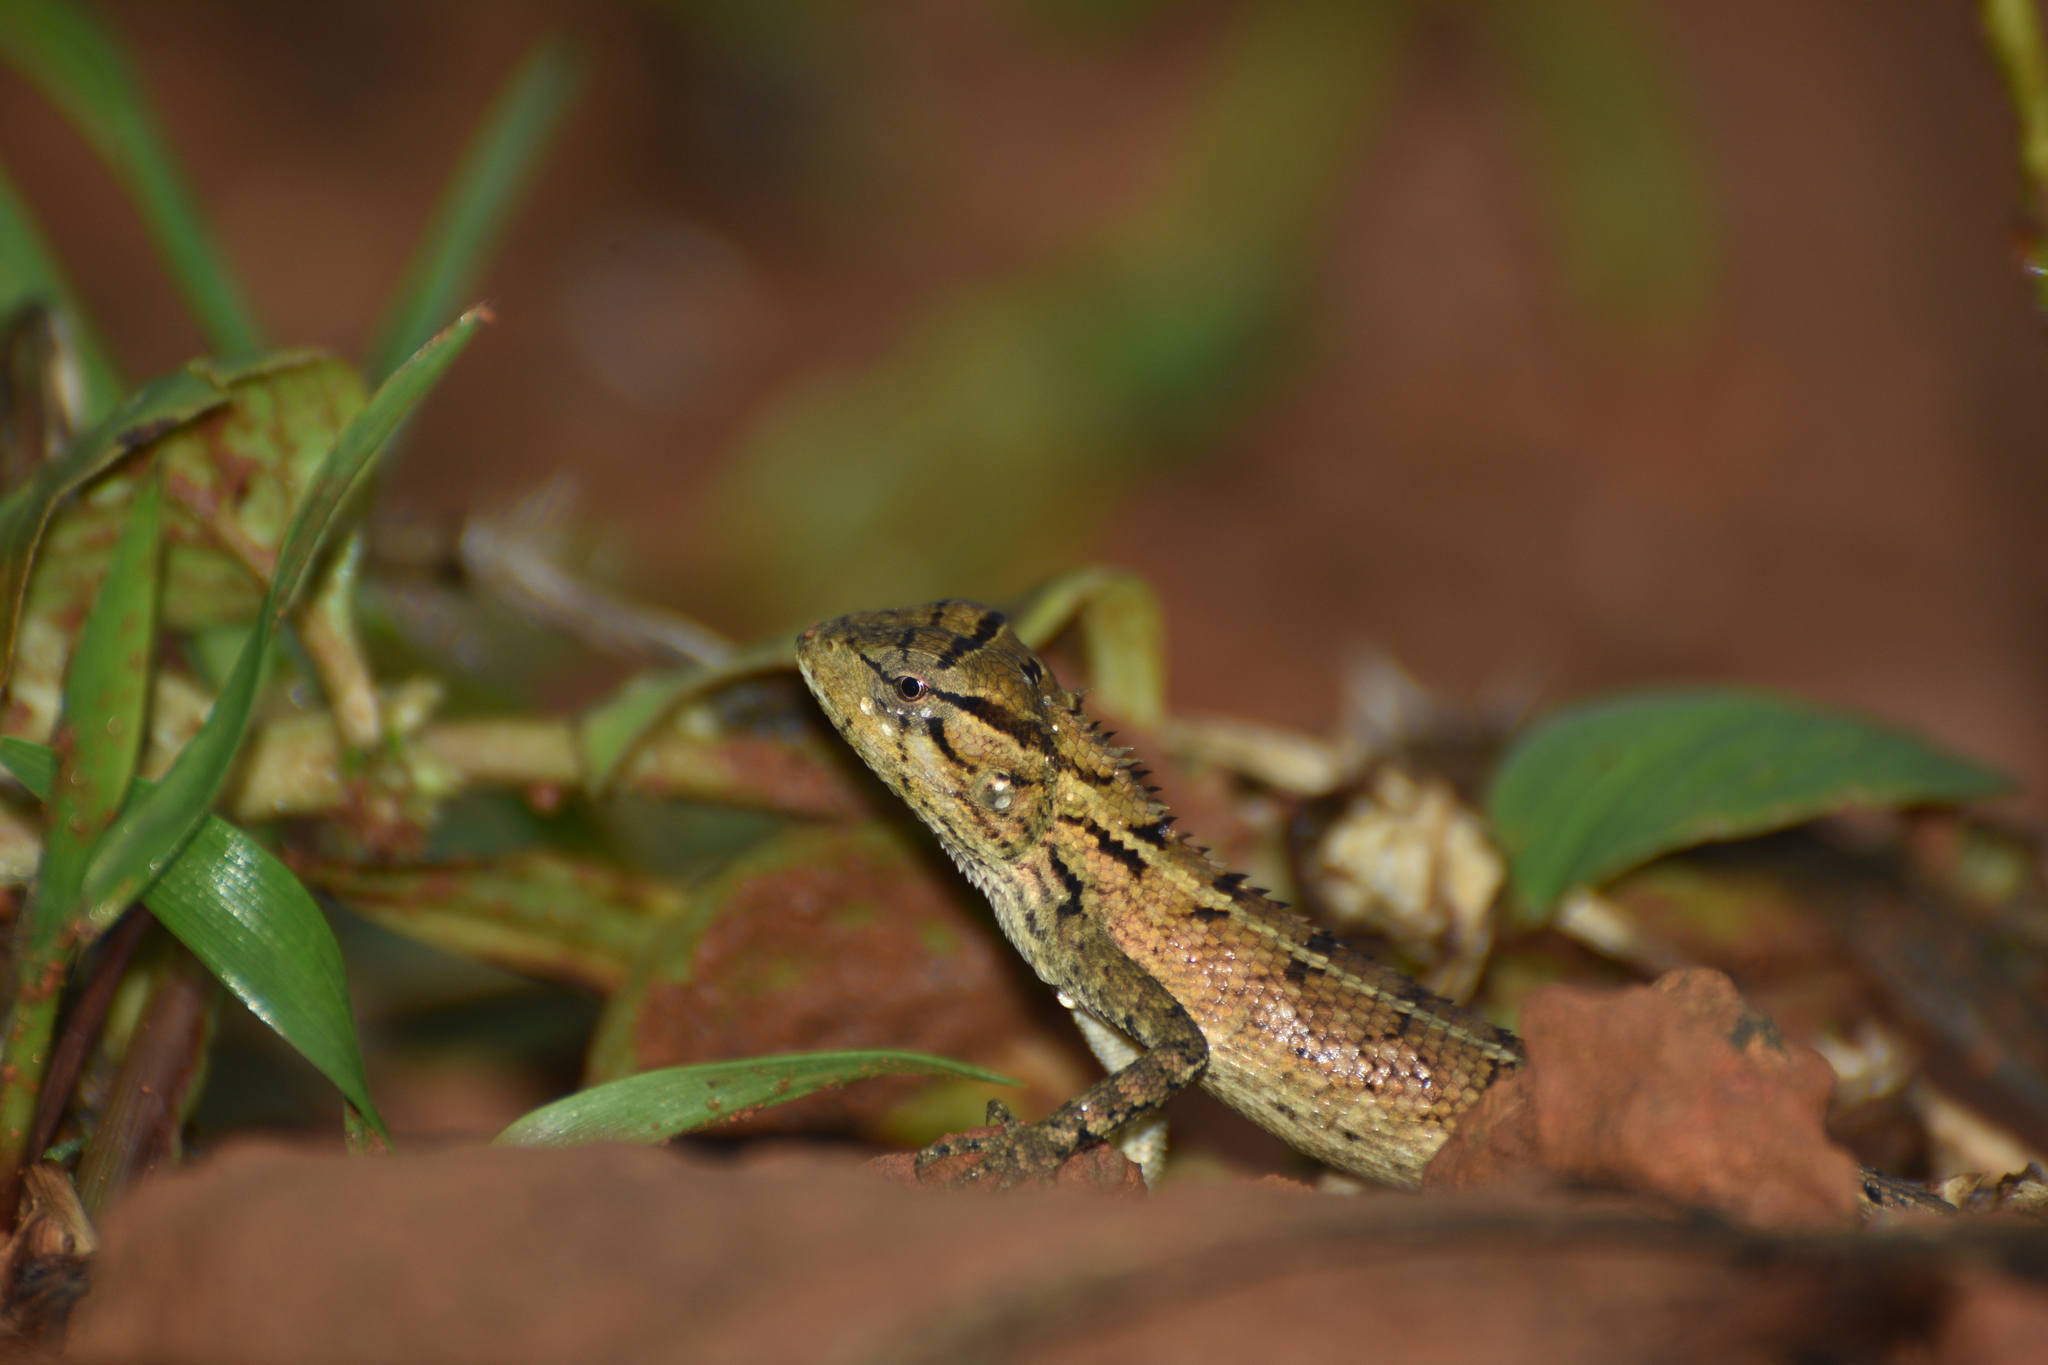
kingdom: Animalia
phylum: Chordata
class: Squamata
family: Agamidae
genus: Calotes
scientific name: Calotes versicolor
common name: Oriental garden lizard
